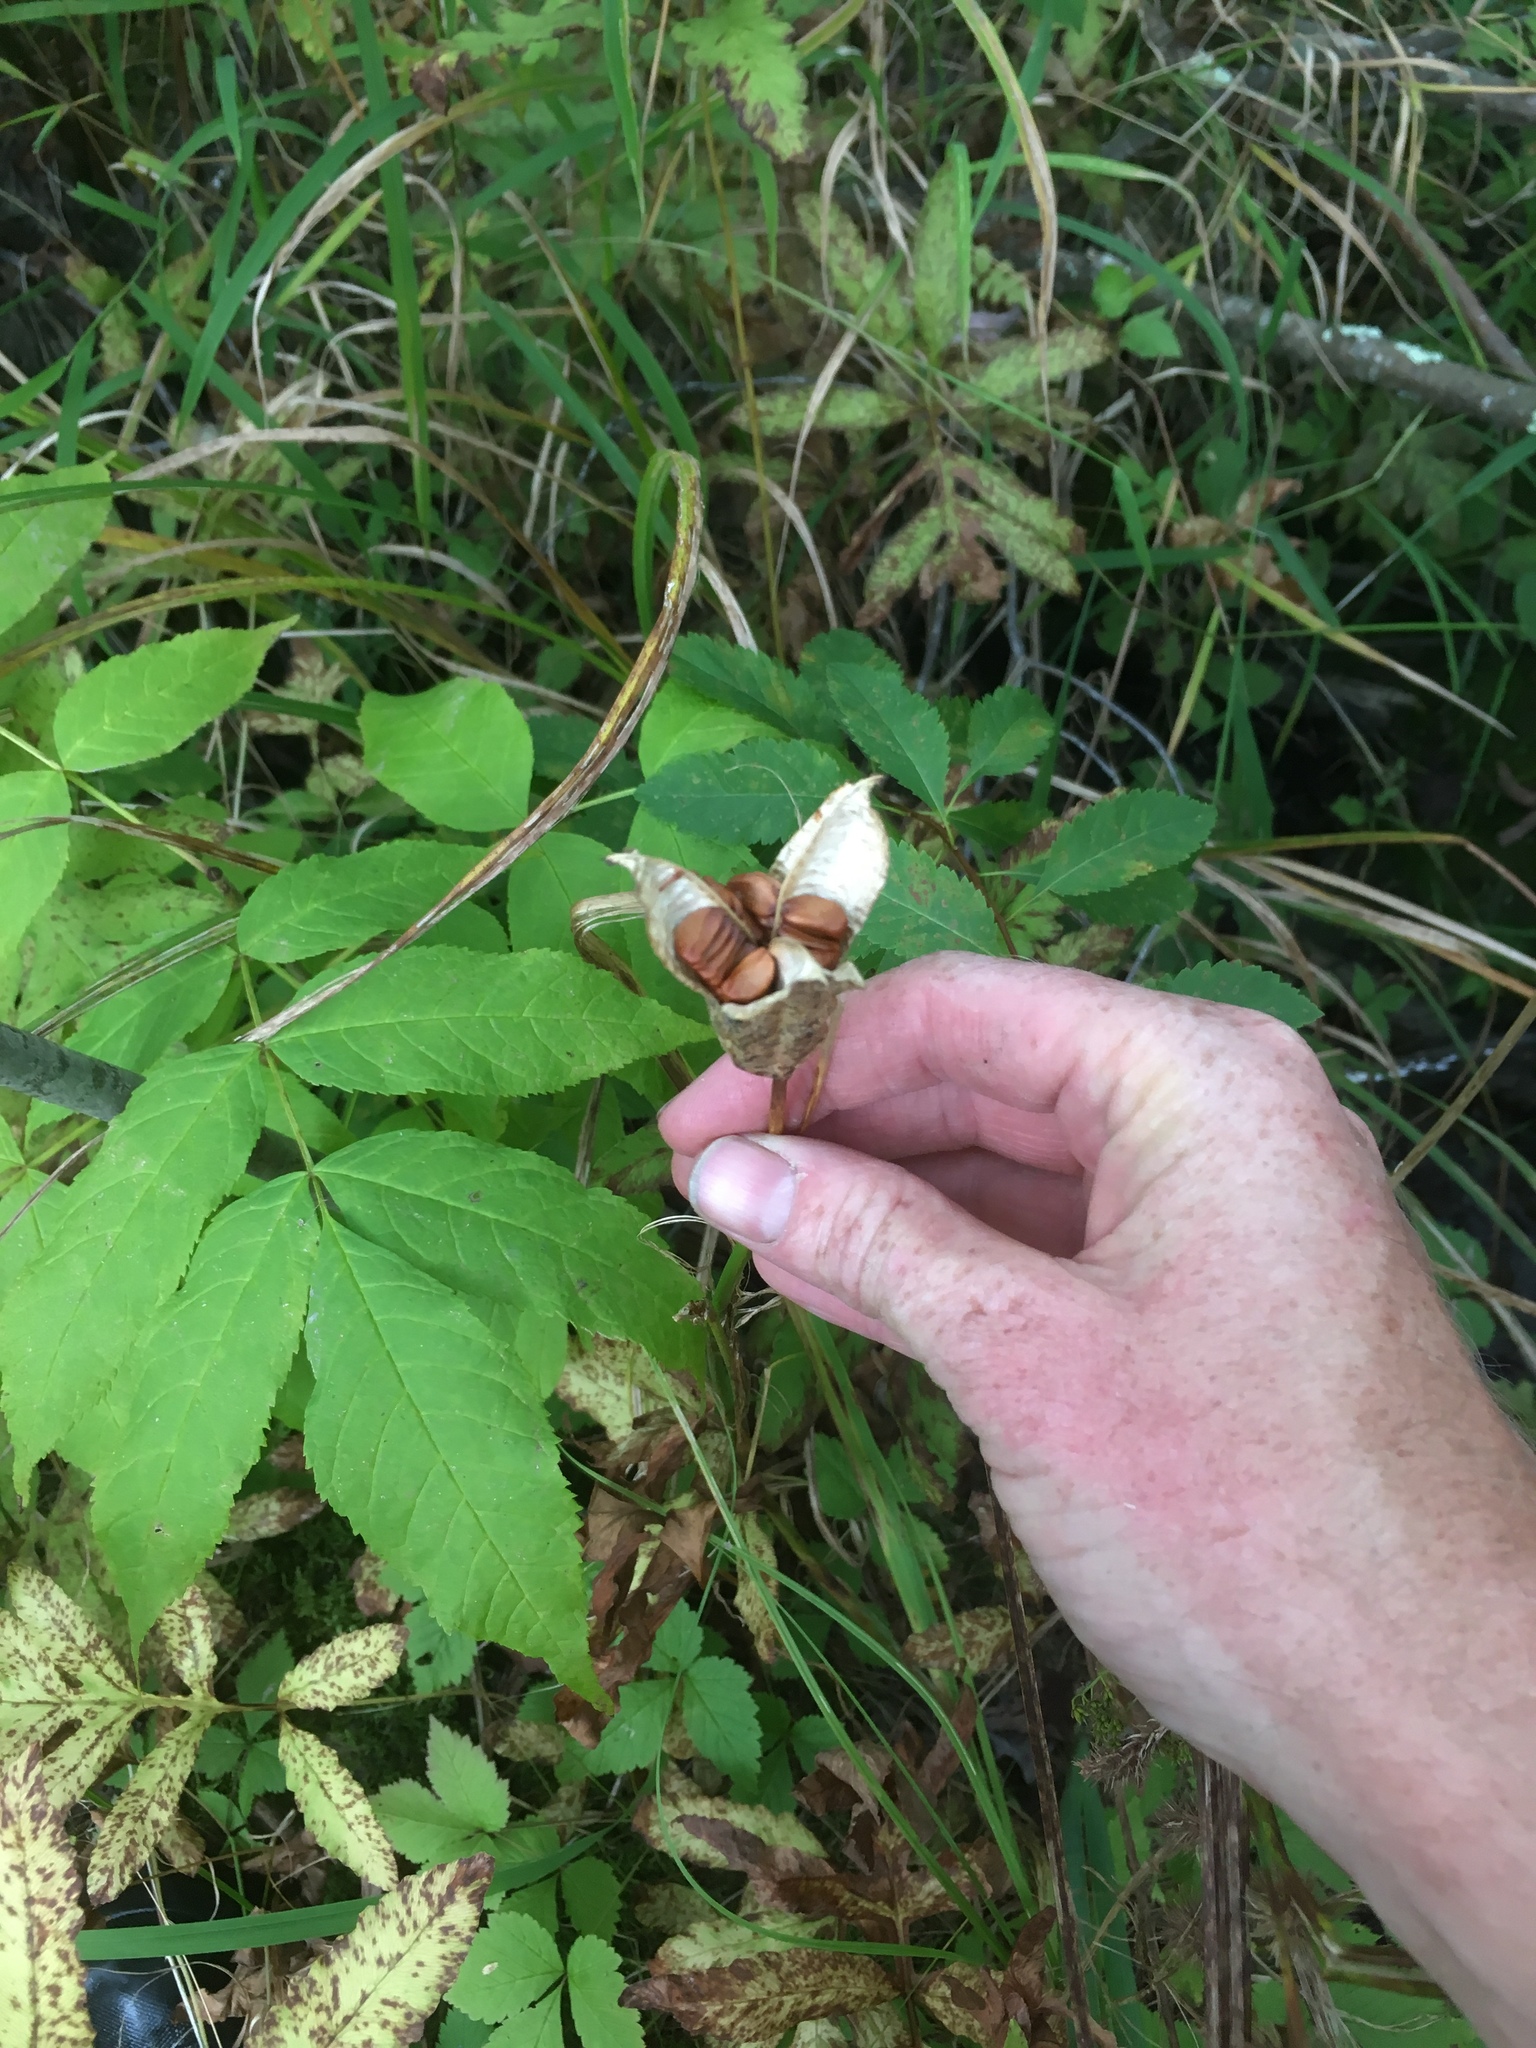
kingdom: Plantae
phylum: Tracheophyta
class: Liliopsida
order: Asparagales
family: Iridaceae
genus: Iris
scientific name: Iris versicolor
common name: Purple iris
